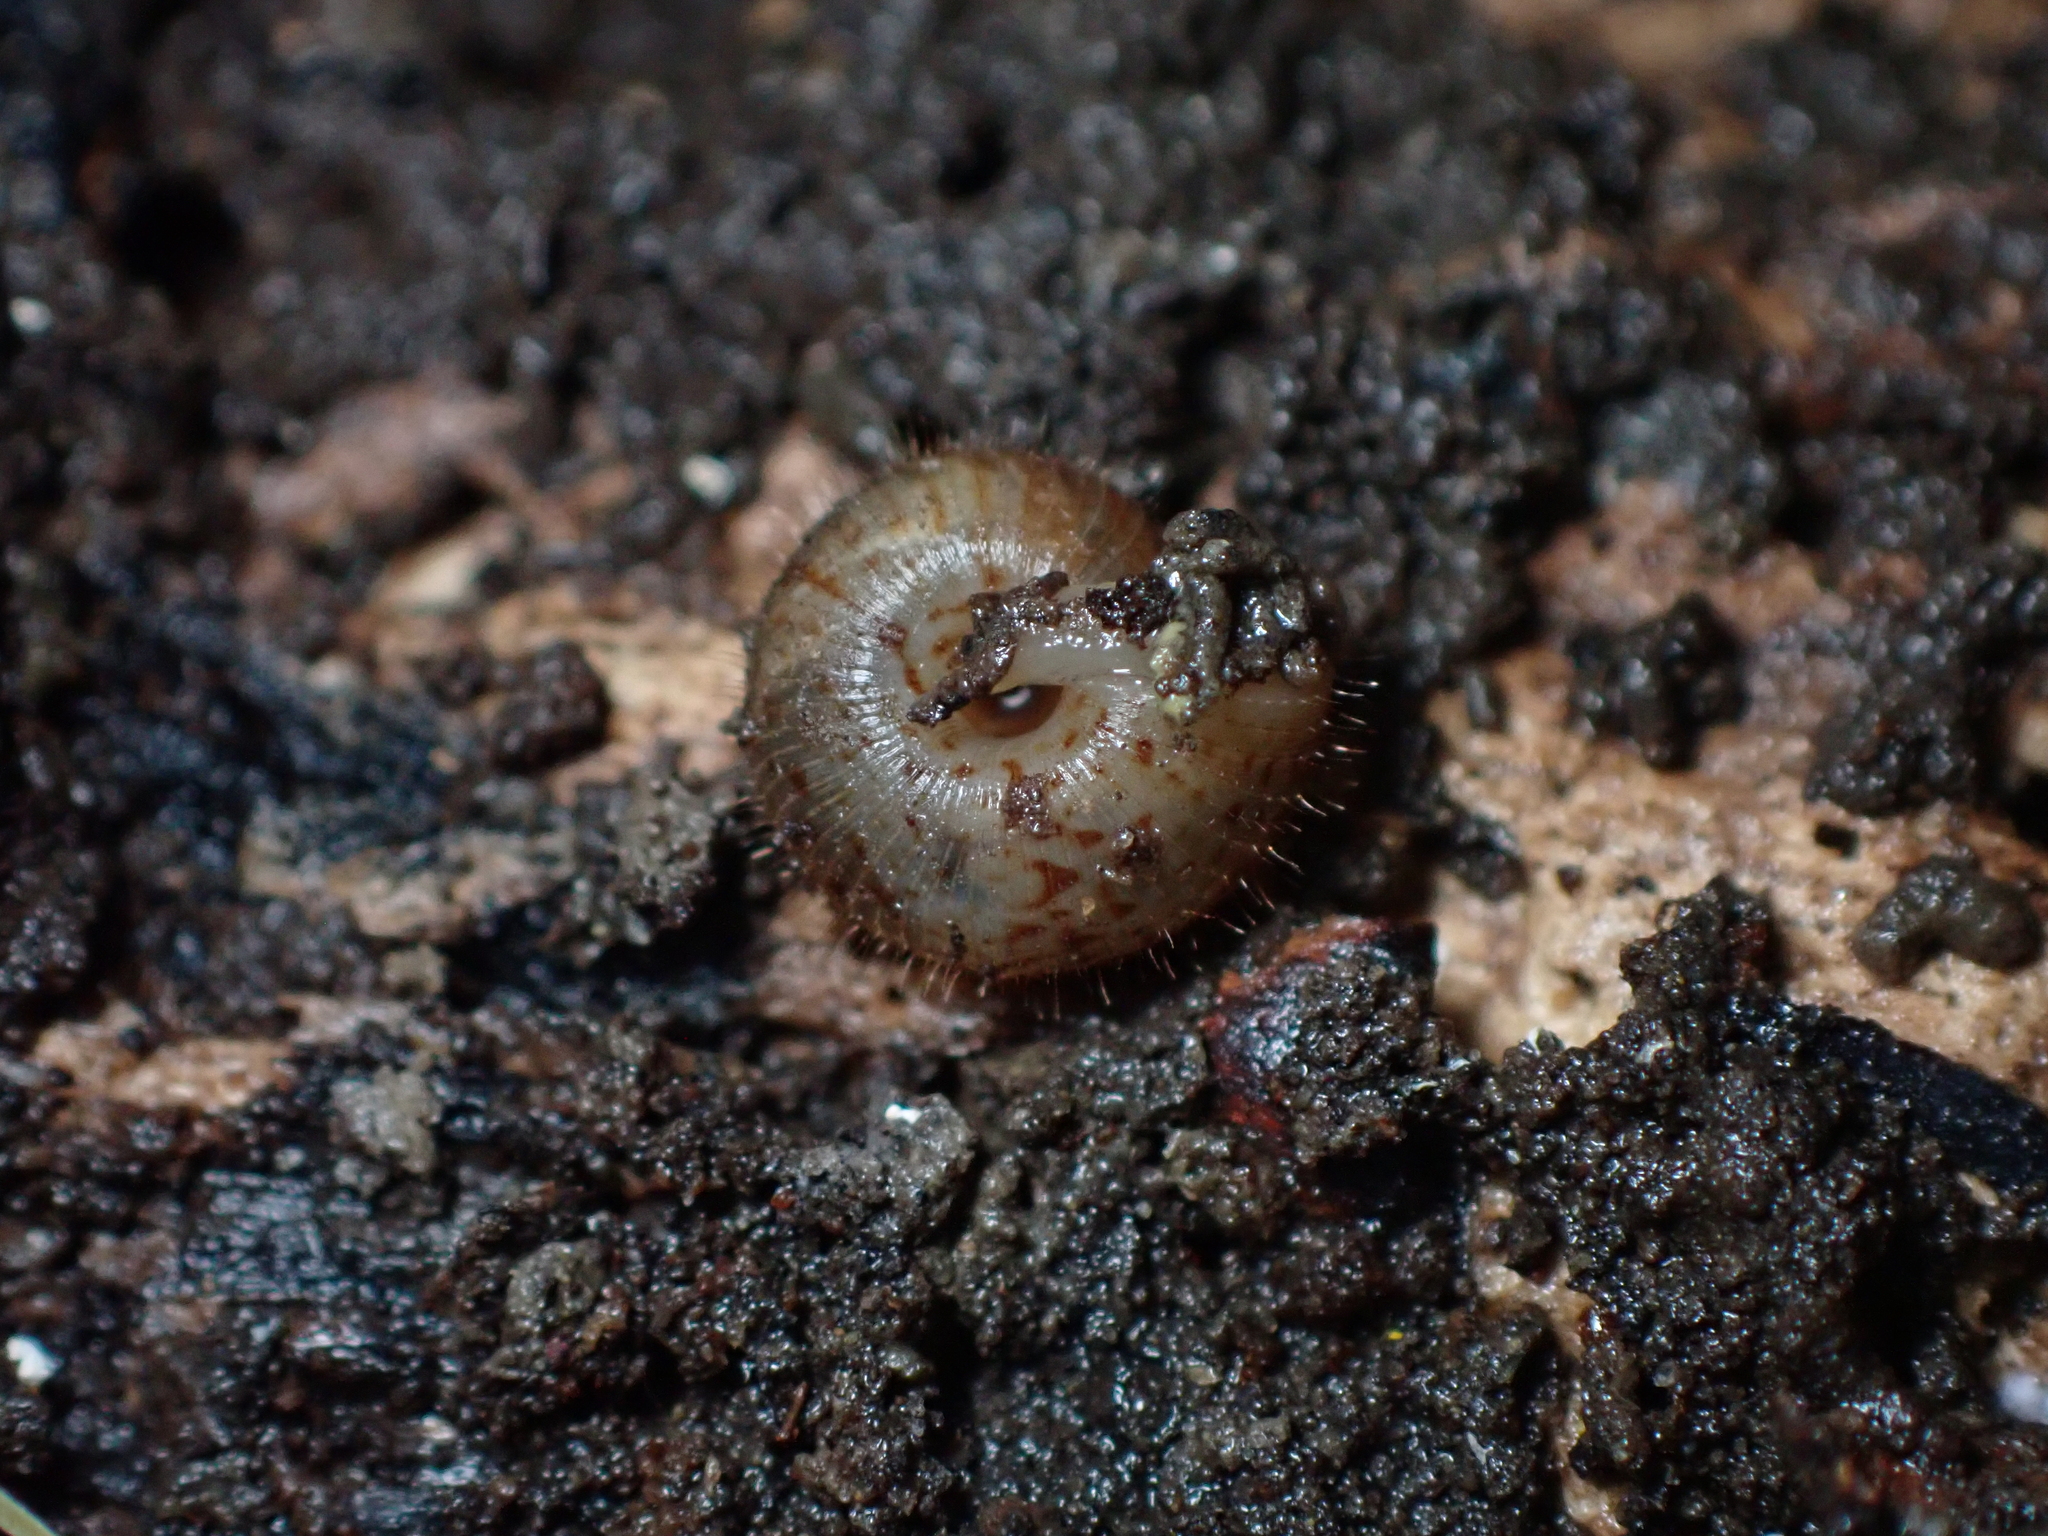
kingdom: Animalia
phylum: Mollusca
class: Gastropoda
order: Stylommatophora
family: Charopidae
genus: Neophenacohelix
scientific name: Neophenacohelix ziczac
